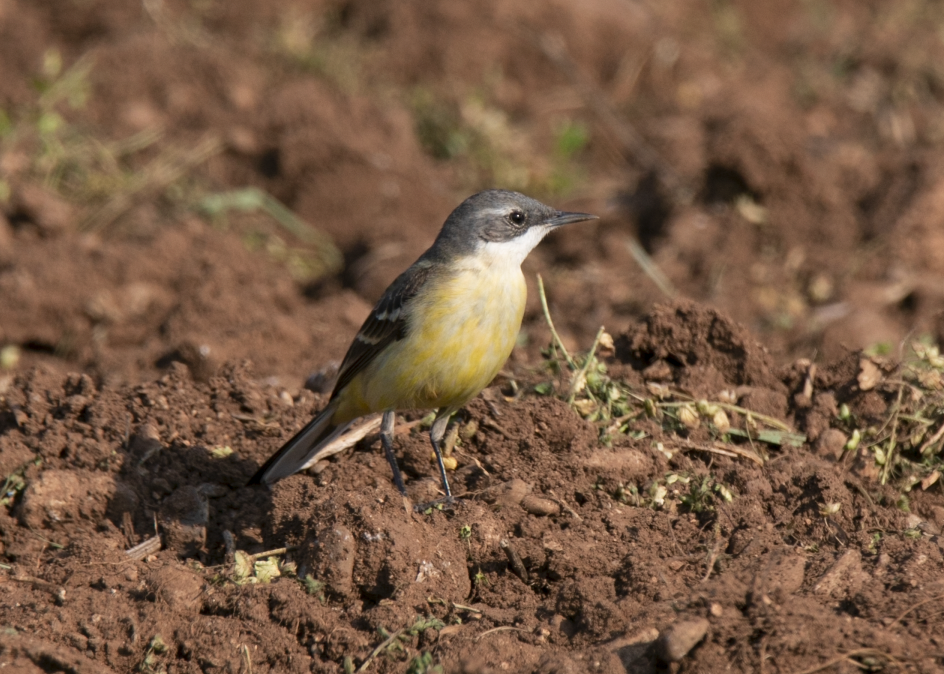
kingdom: Animalia
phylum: Chordata
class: Aves
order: Passeriformes
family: Motacillidae
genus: Motacilla
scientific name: Motacilla flava
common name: Western yellow wagtail
